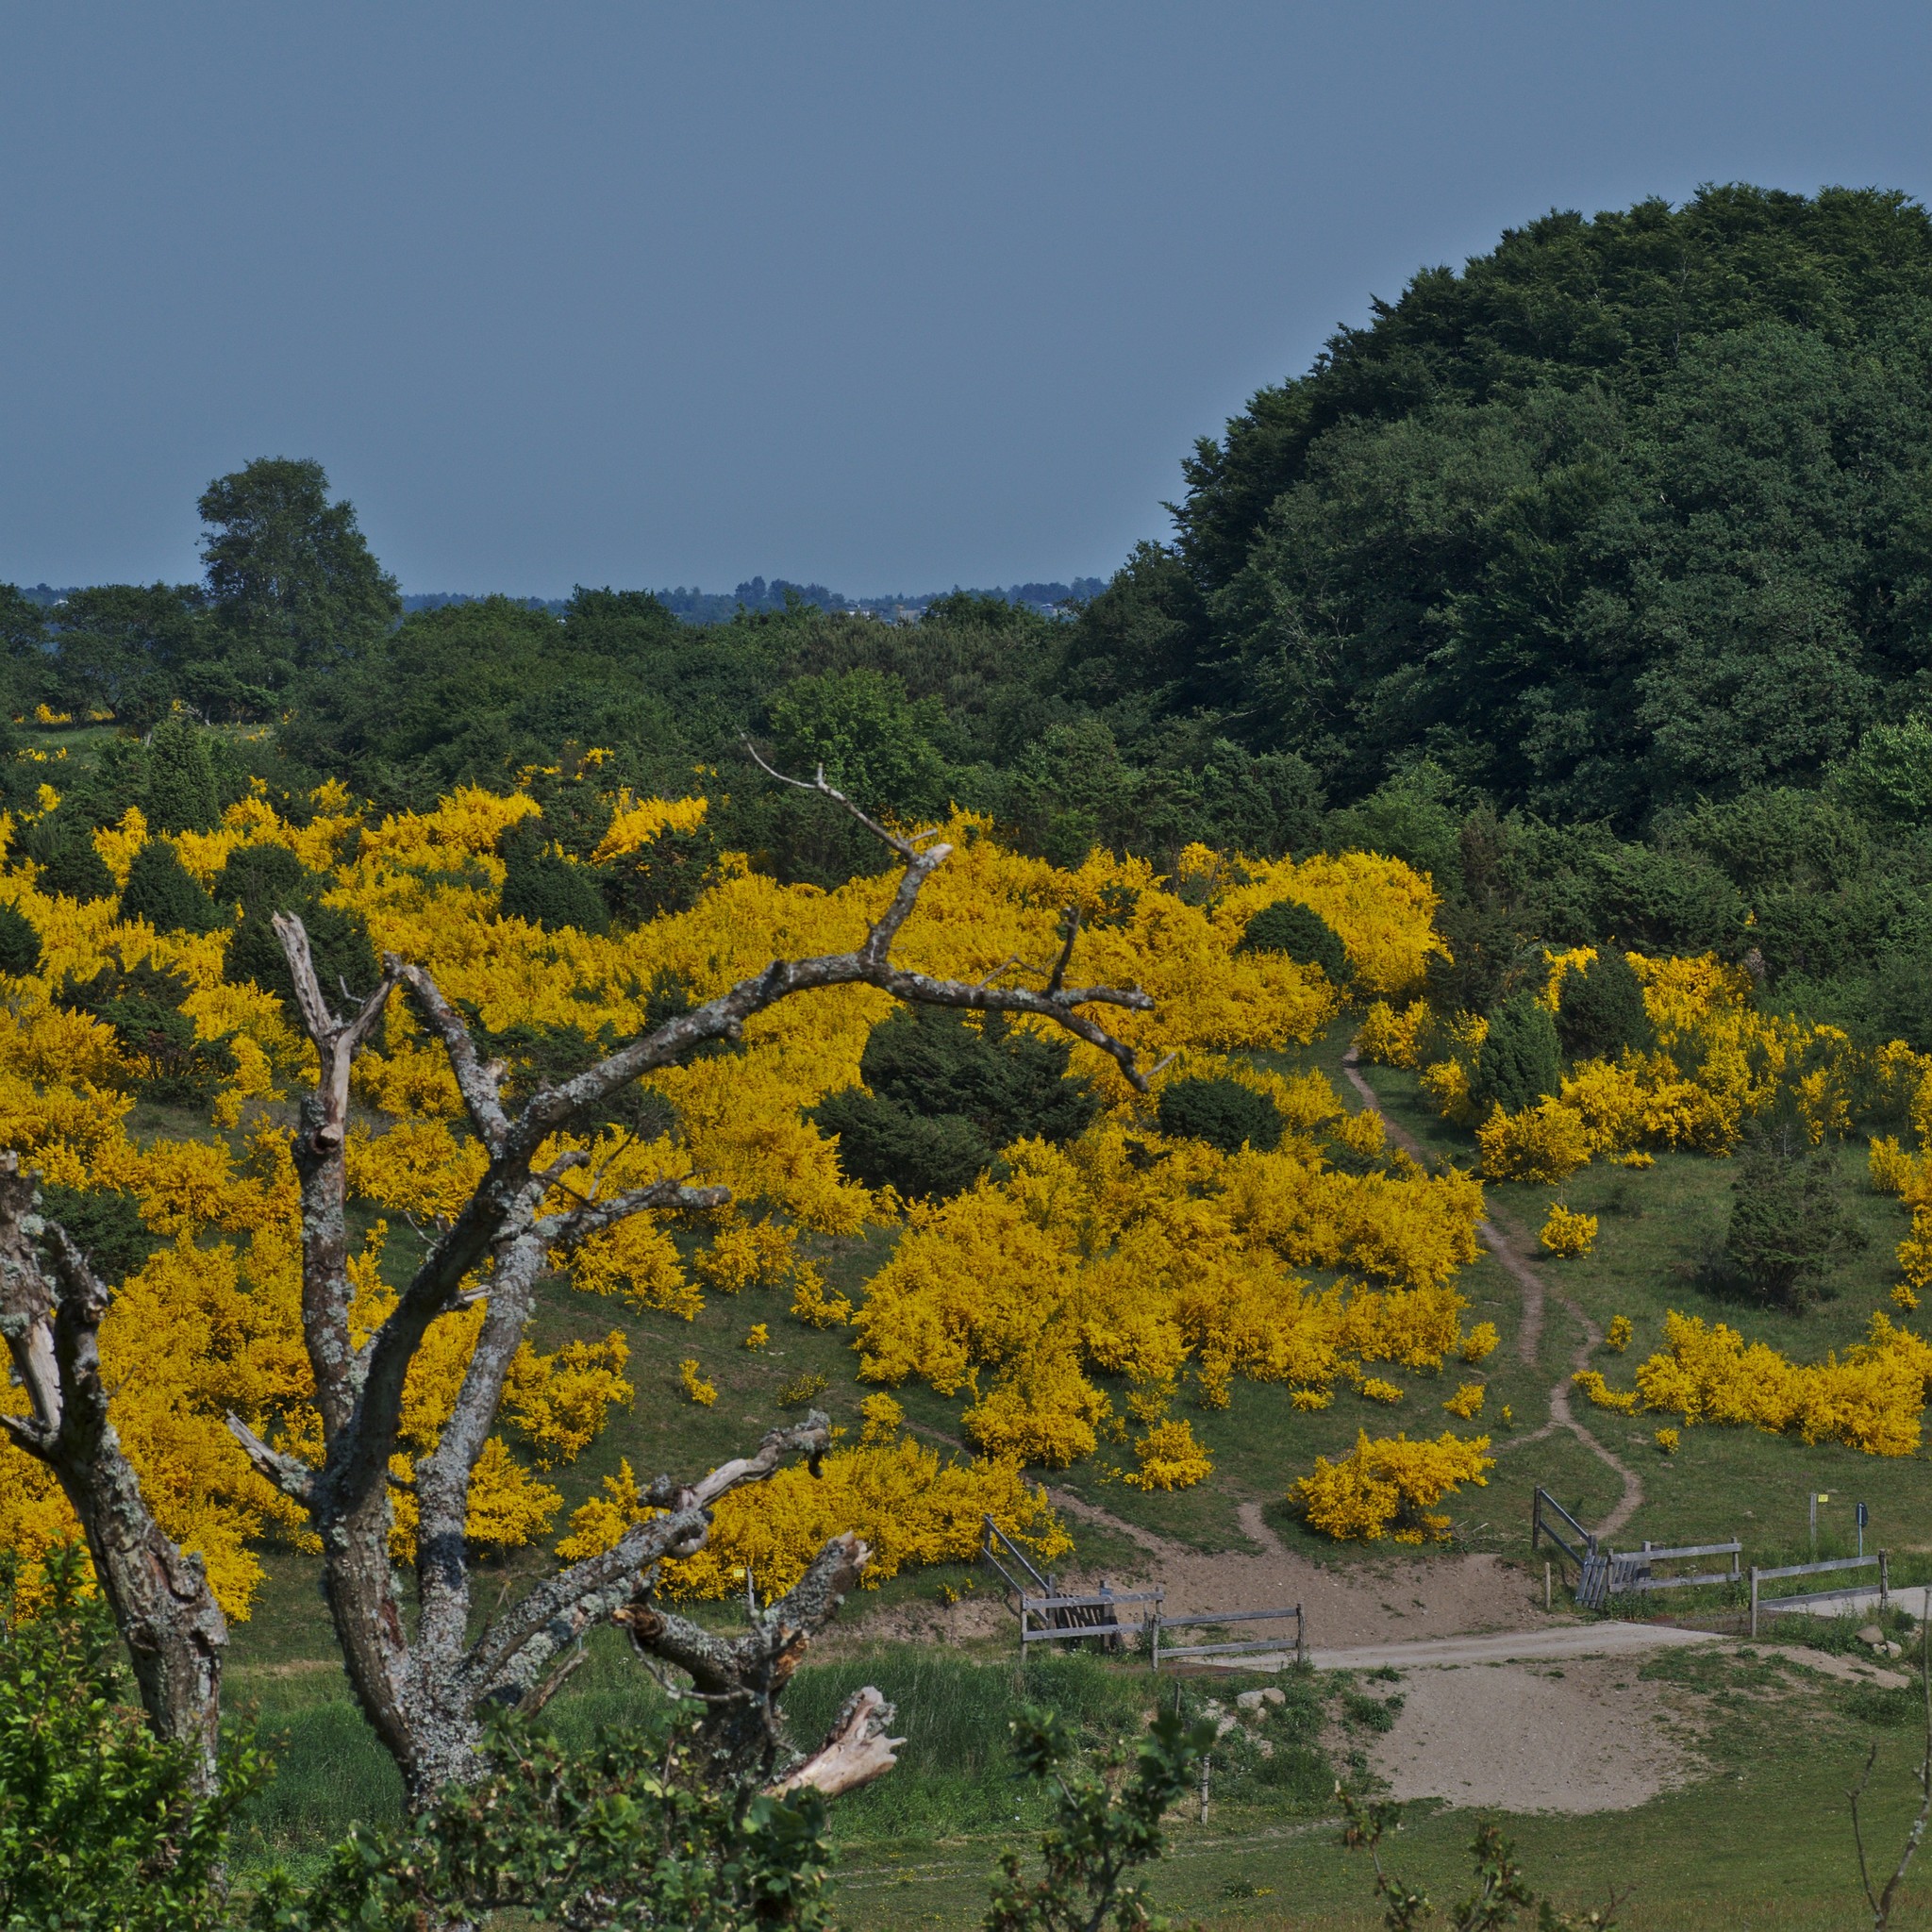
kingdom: Plantae
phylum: Tracheophyta
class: Magnoliopsida
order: Fabales
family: Fabaceae
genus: Cytisus
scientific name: Cytisus scoparius
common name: Scotch broom
